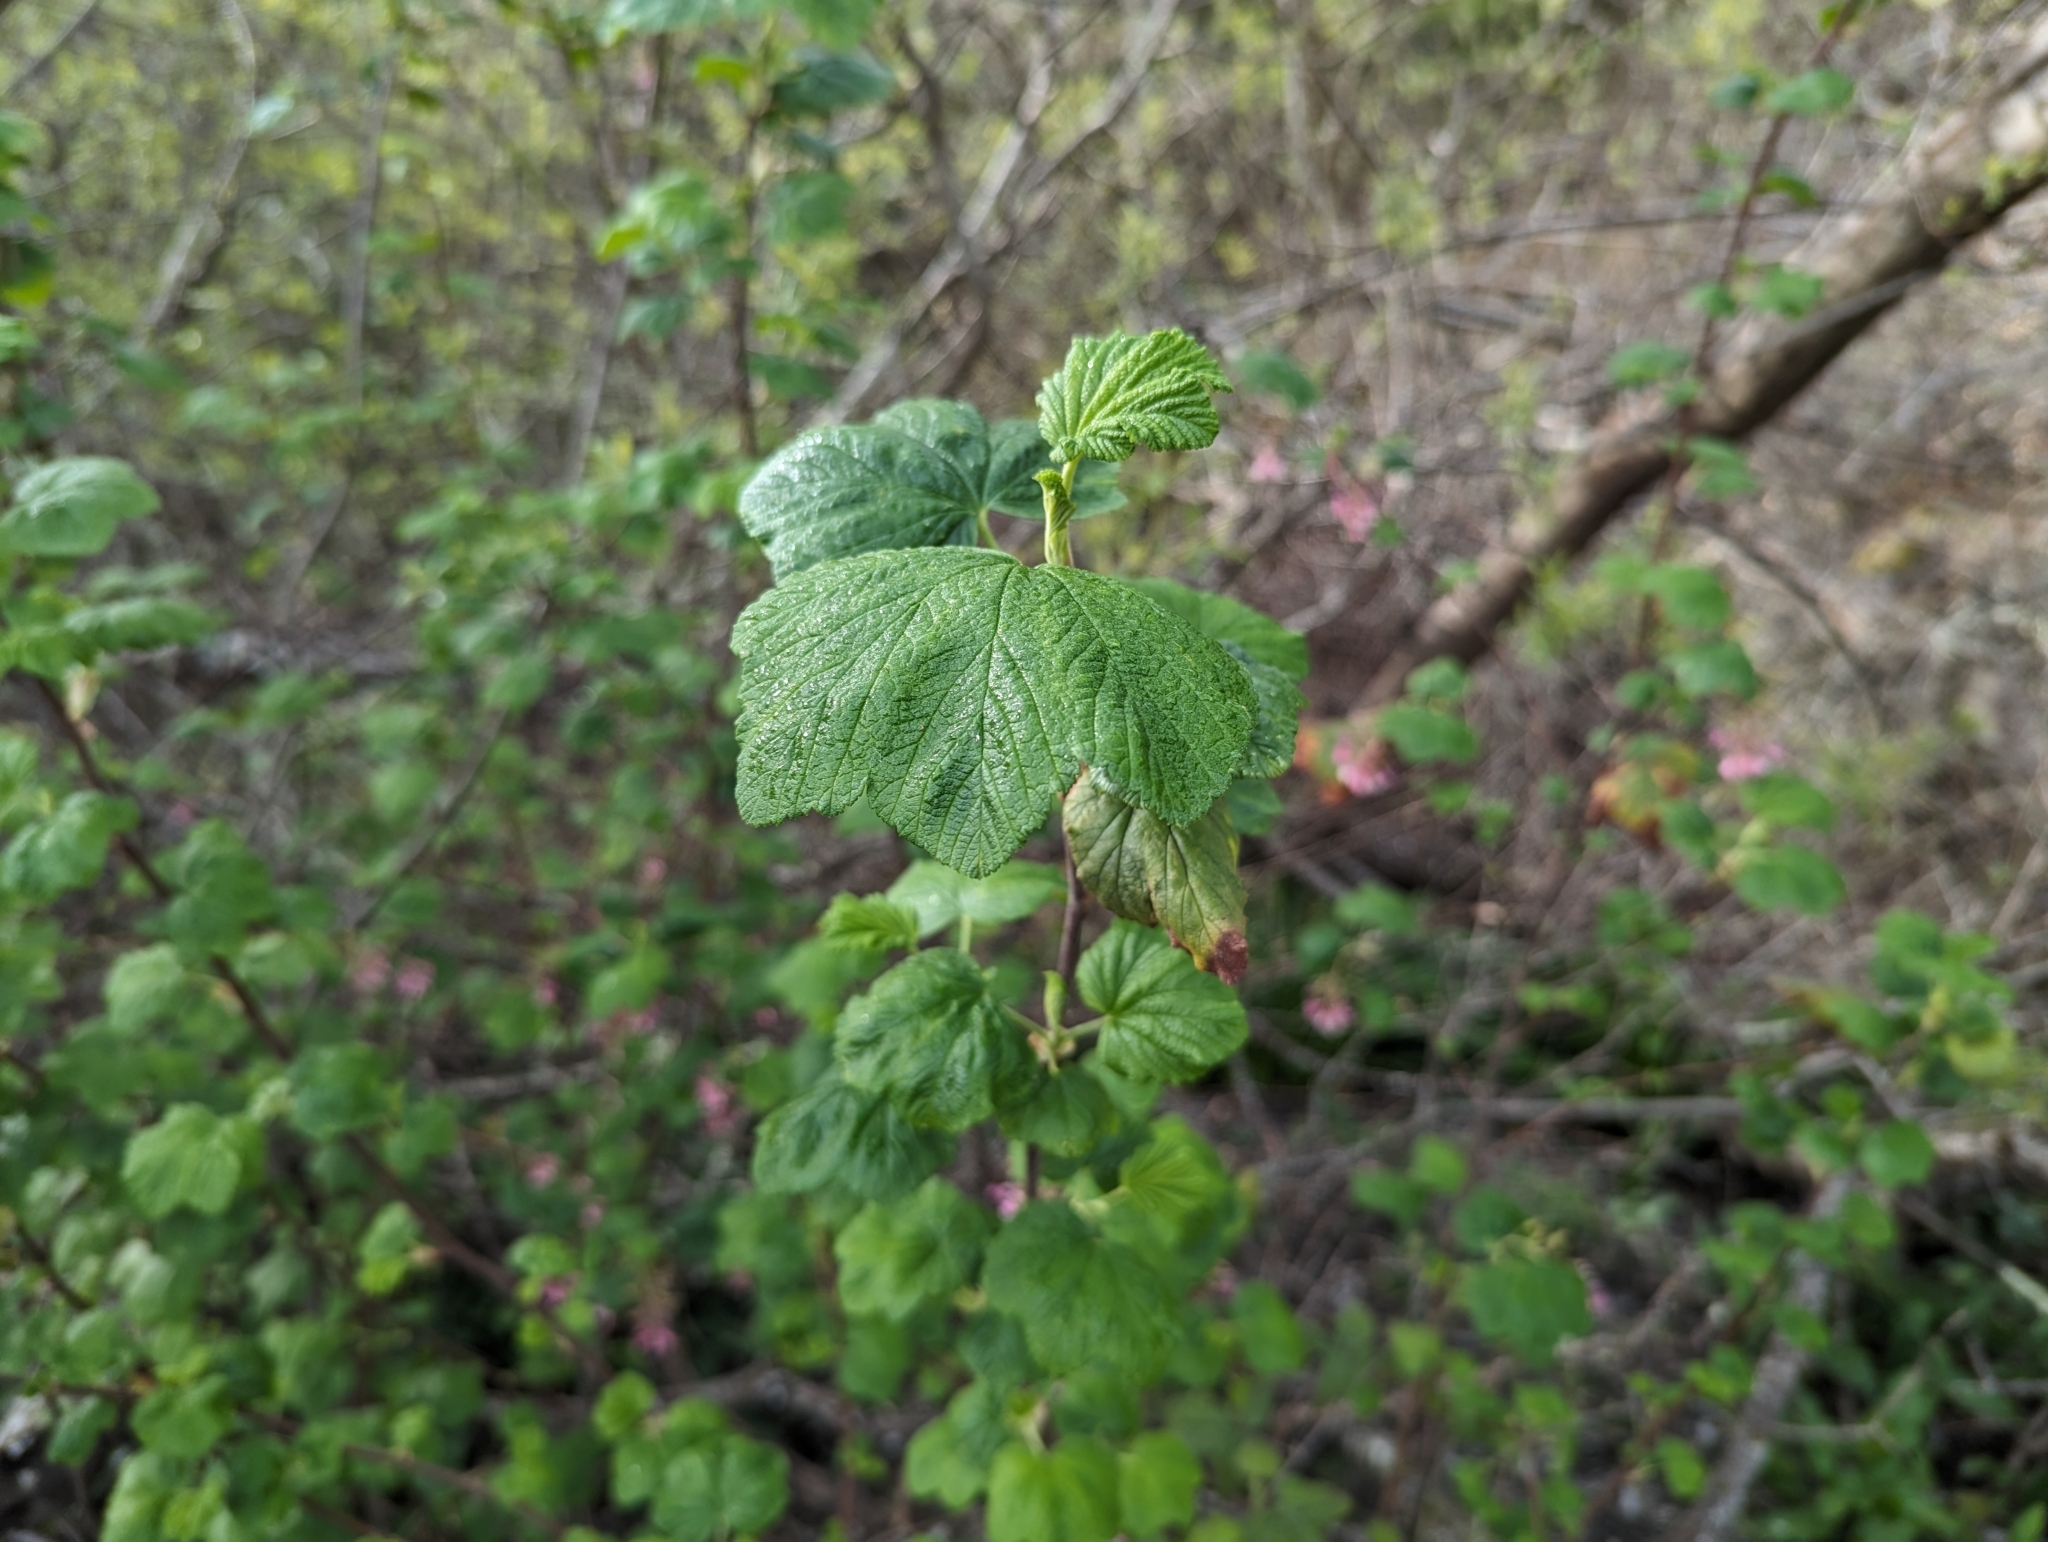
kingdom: Plantae
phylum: Tracheophyta
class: Magnoliopsida
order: Saxifragales
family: Grossulariaceae
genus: Ribes
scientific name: Ribes sanguineum
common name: Flowering currant
